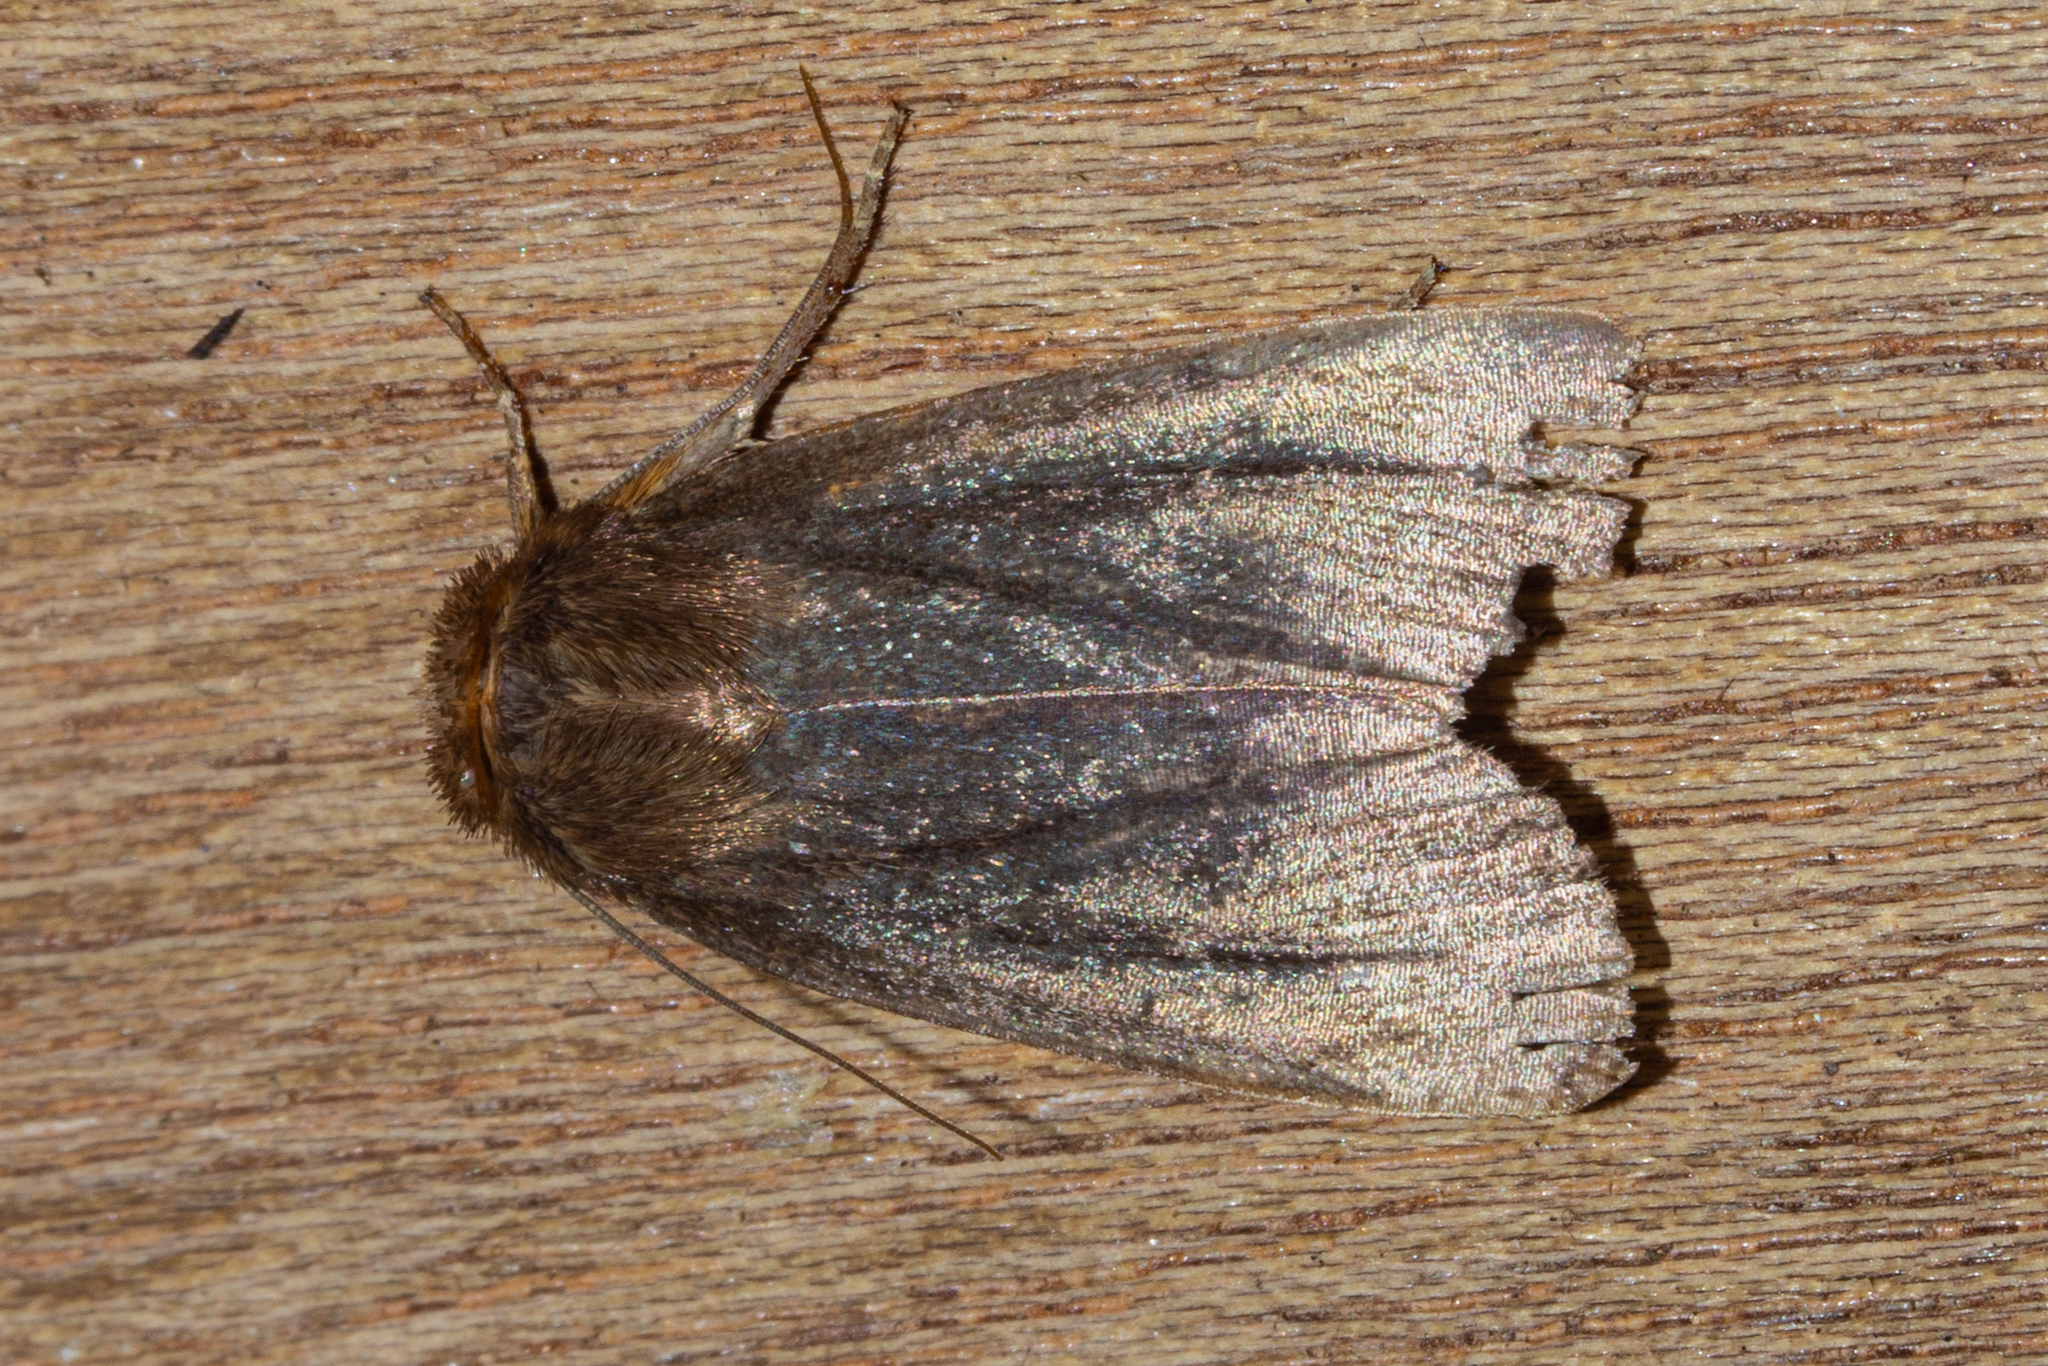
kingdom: Animalia
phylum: Arthropoda
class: Insecta
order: Lepidoptera
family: Noctuidae
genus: Bityla
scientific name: Bityla defigurata
